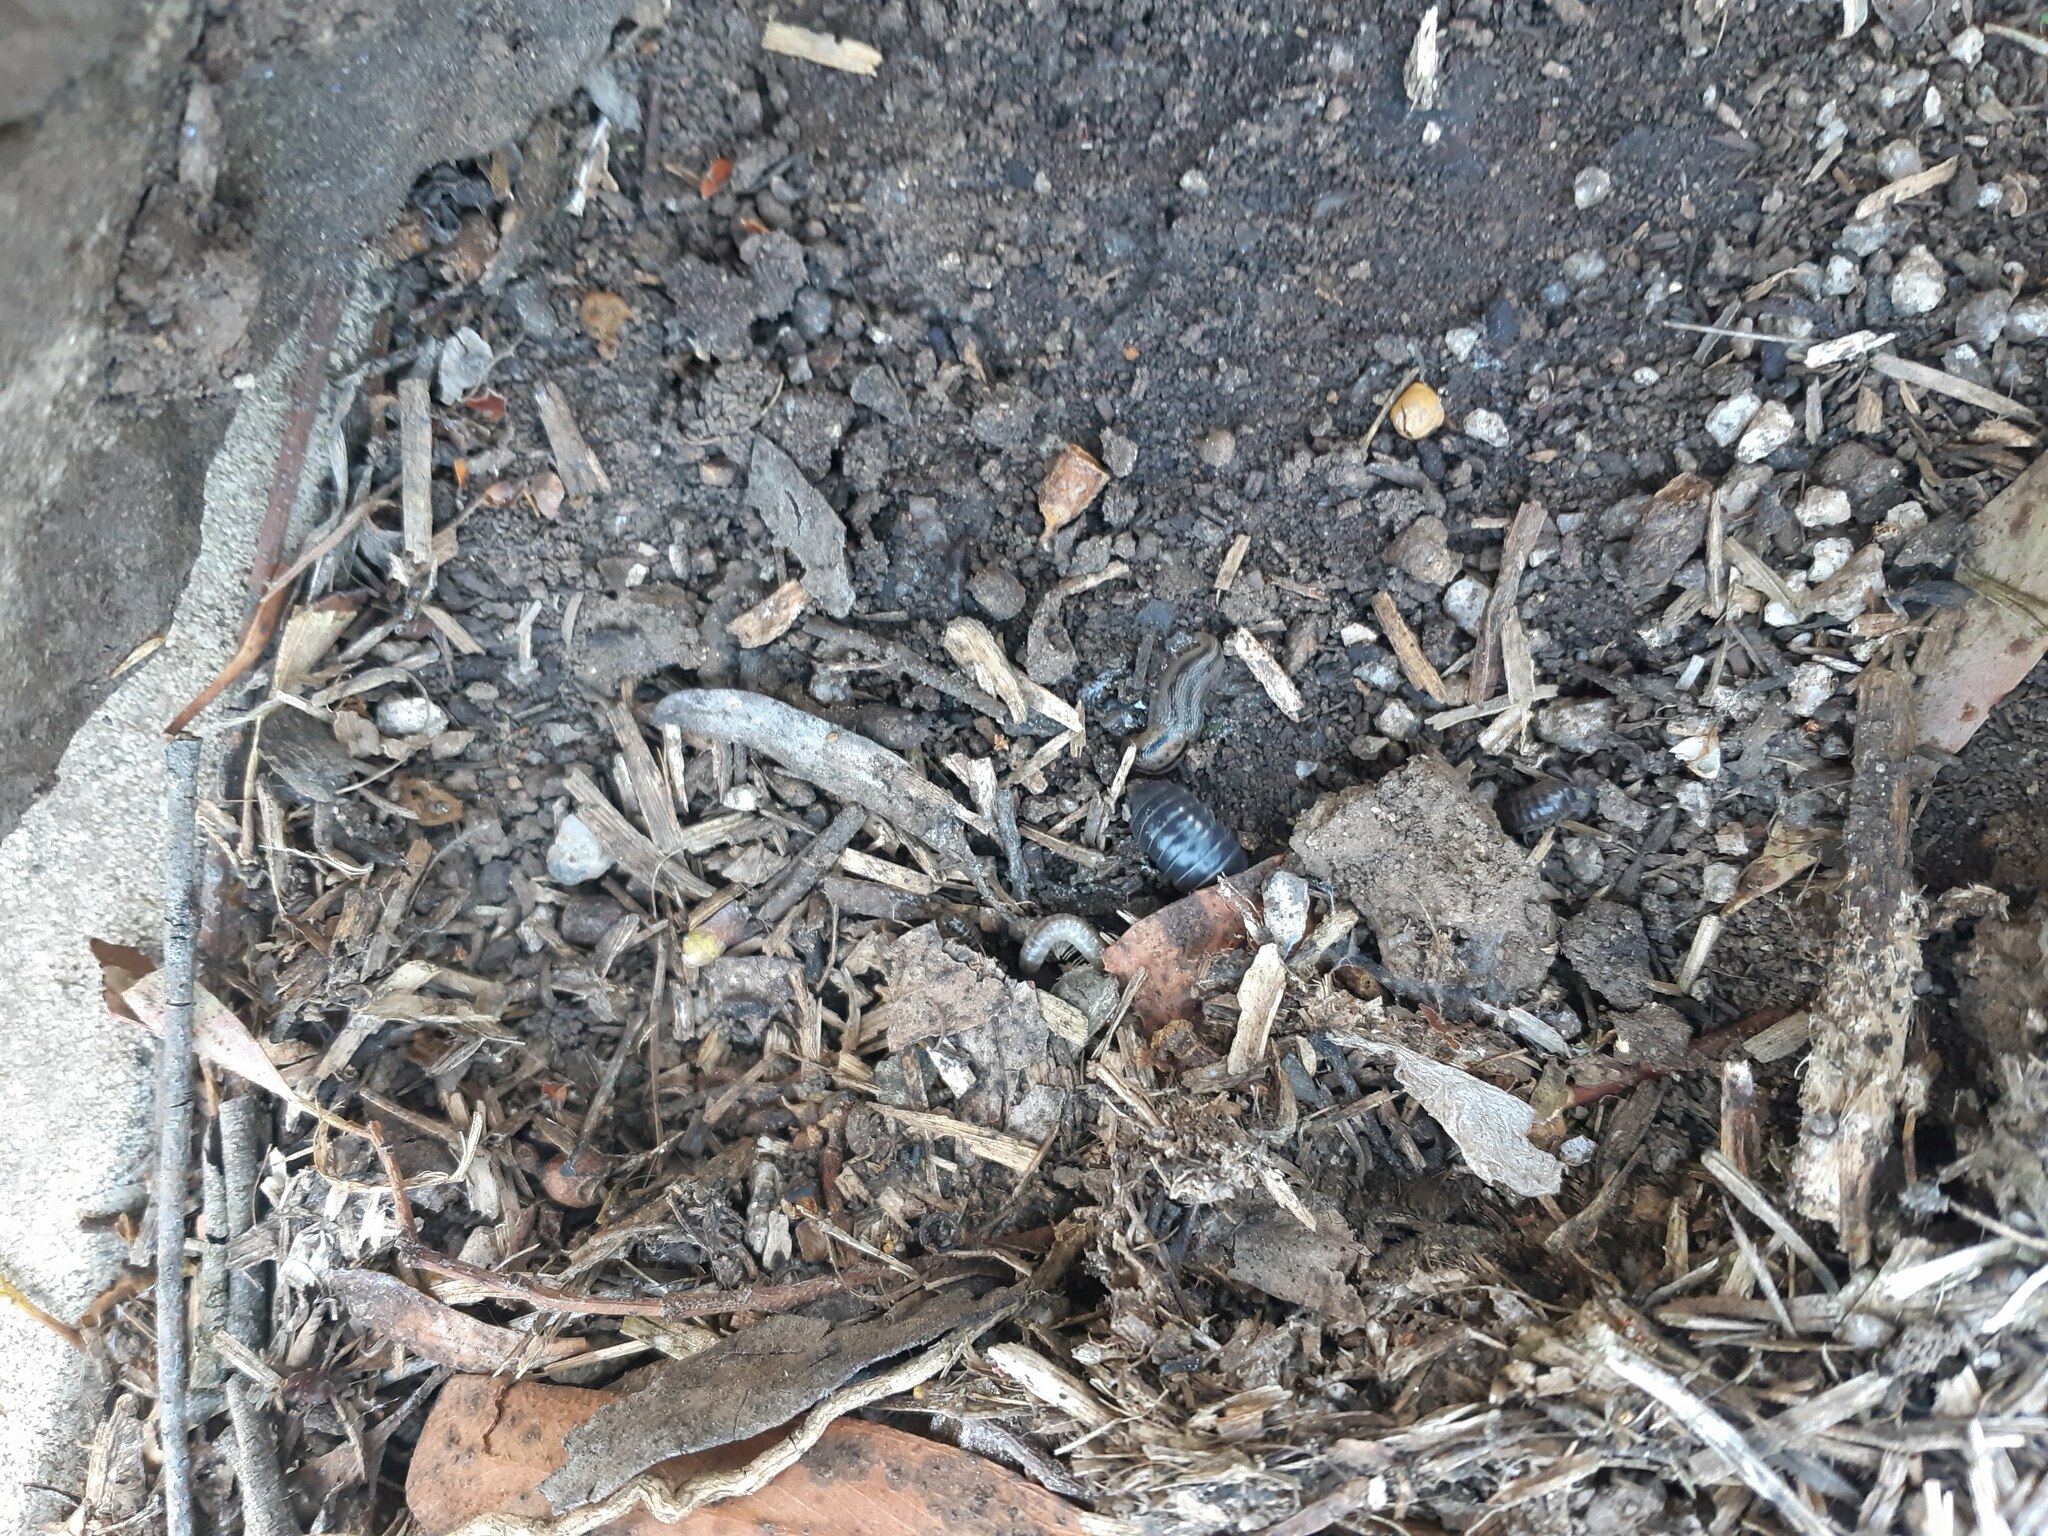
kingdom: Animalia
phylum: Arthropoda
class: Malacostraca
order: Isopoda
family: Armadillidiidae
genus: Armadillidium
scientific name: Armadillidium vulgare
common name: Common pill woodlouse
